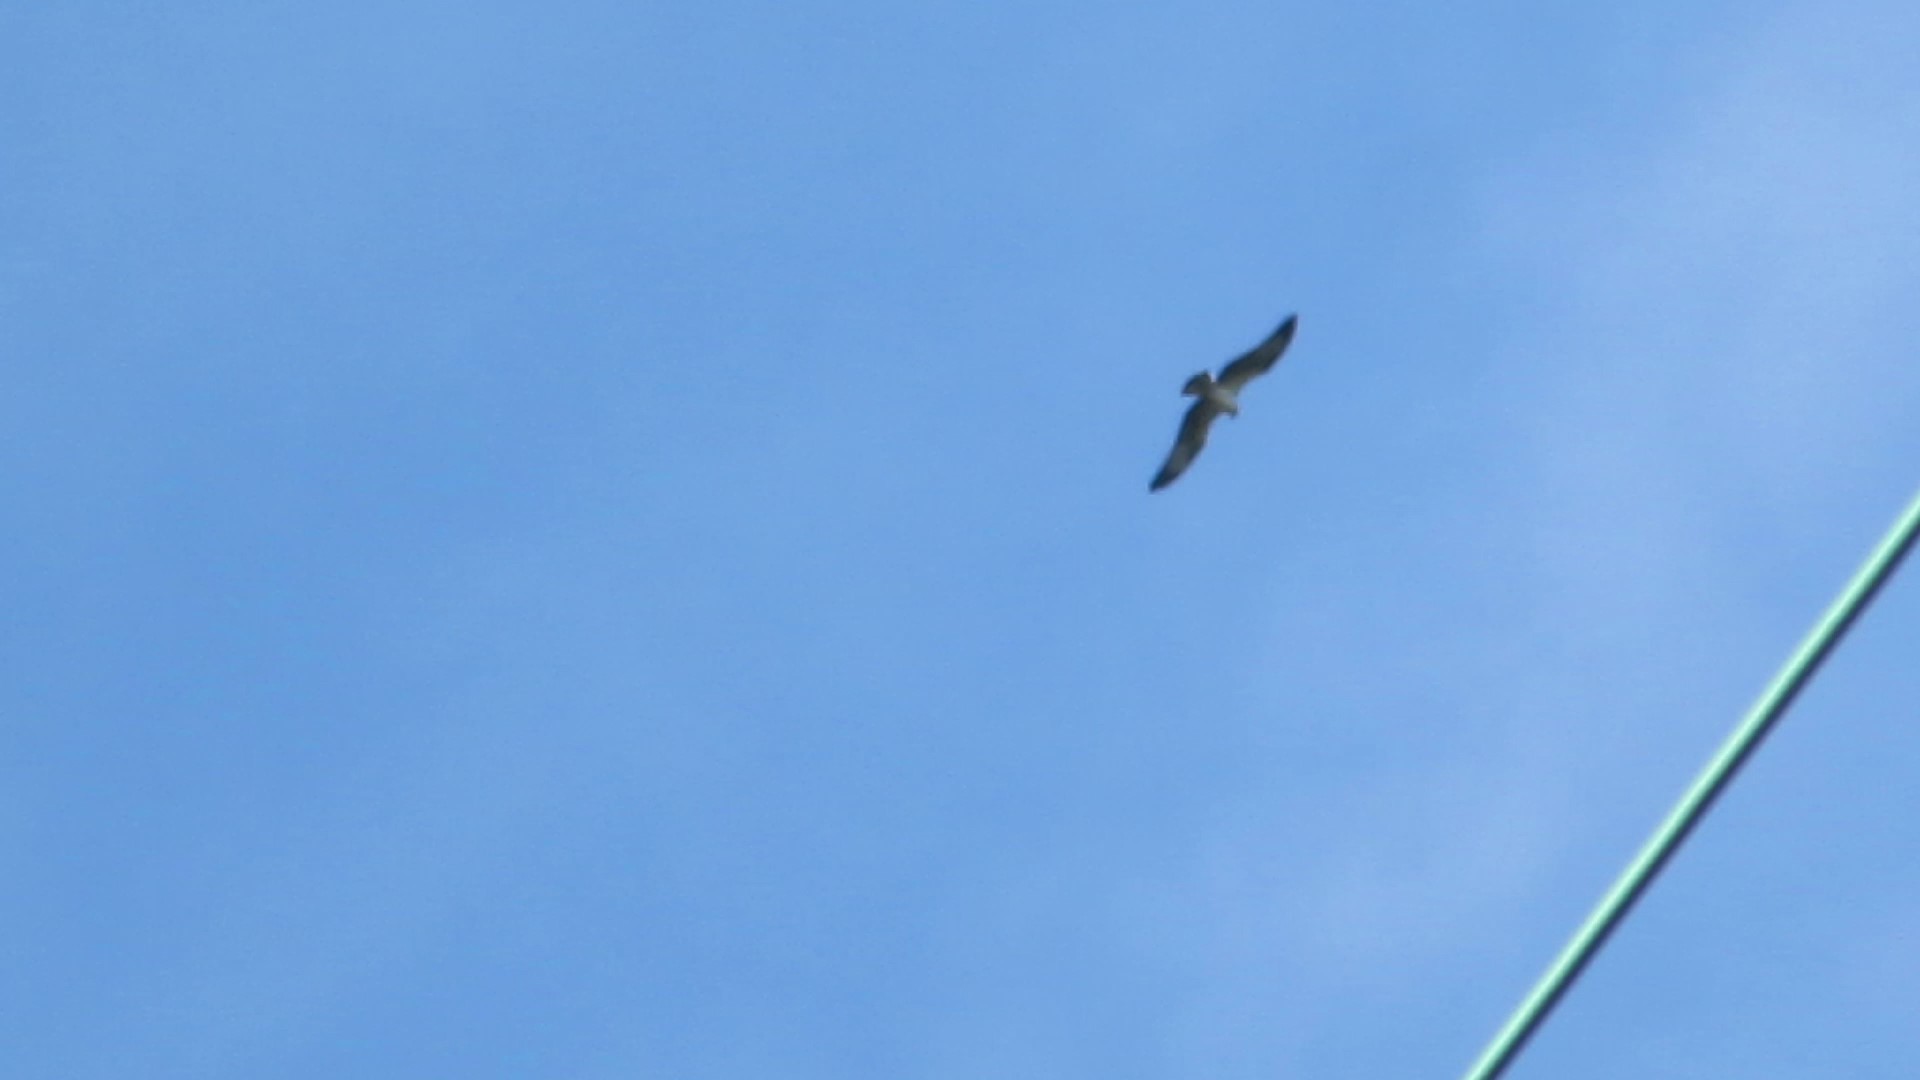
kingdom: Animalia
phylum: Chordata
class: Aves
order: Accipitriformes
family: Pandionidae
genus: Pandion
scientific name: Pandion haliaetus
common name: Osprey
